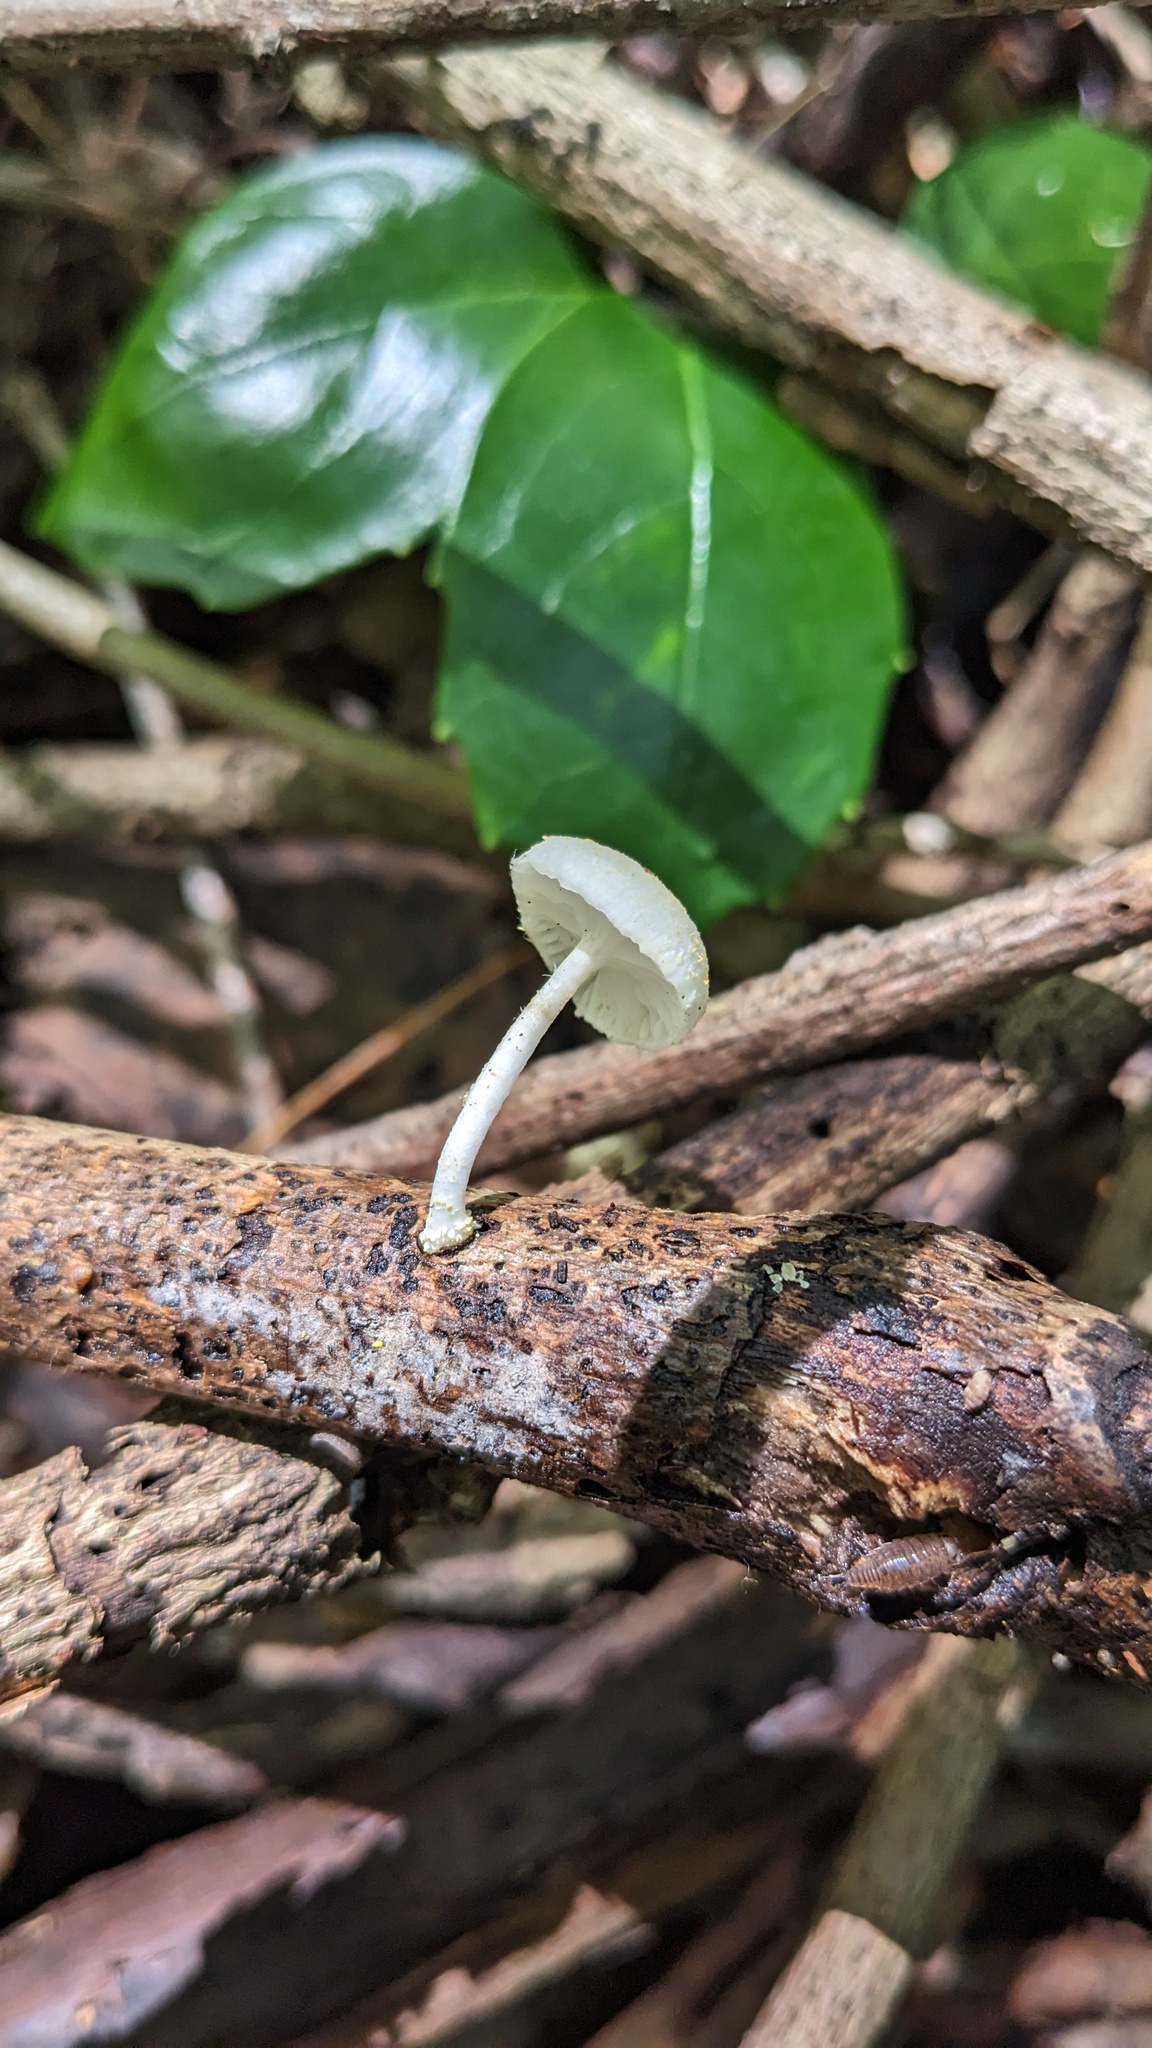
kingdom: Fungi
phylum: Basidiomycota
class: Agaricomycetes
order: Agaricales
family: Physalacriaceae
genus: Cyptotrama
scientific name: Cyptotrama asprata
